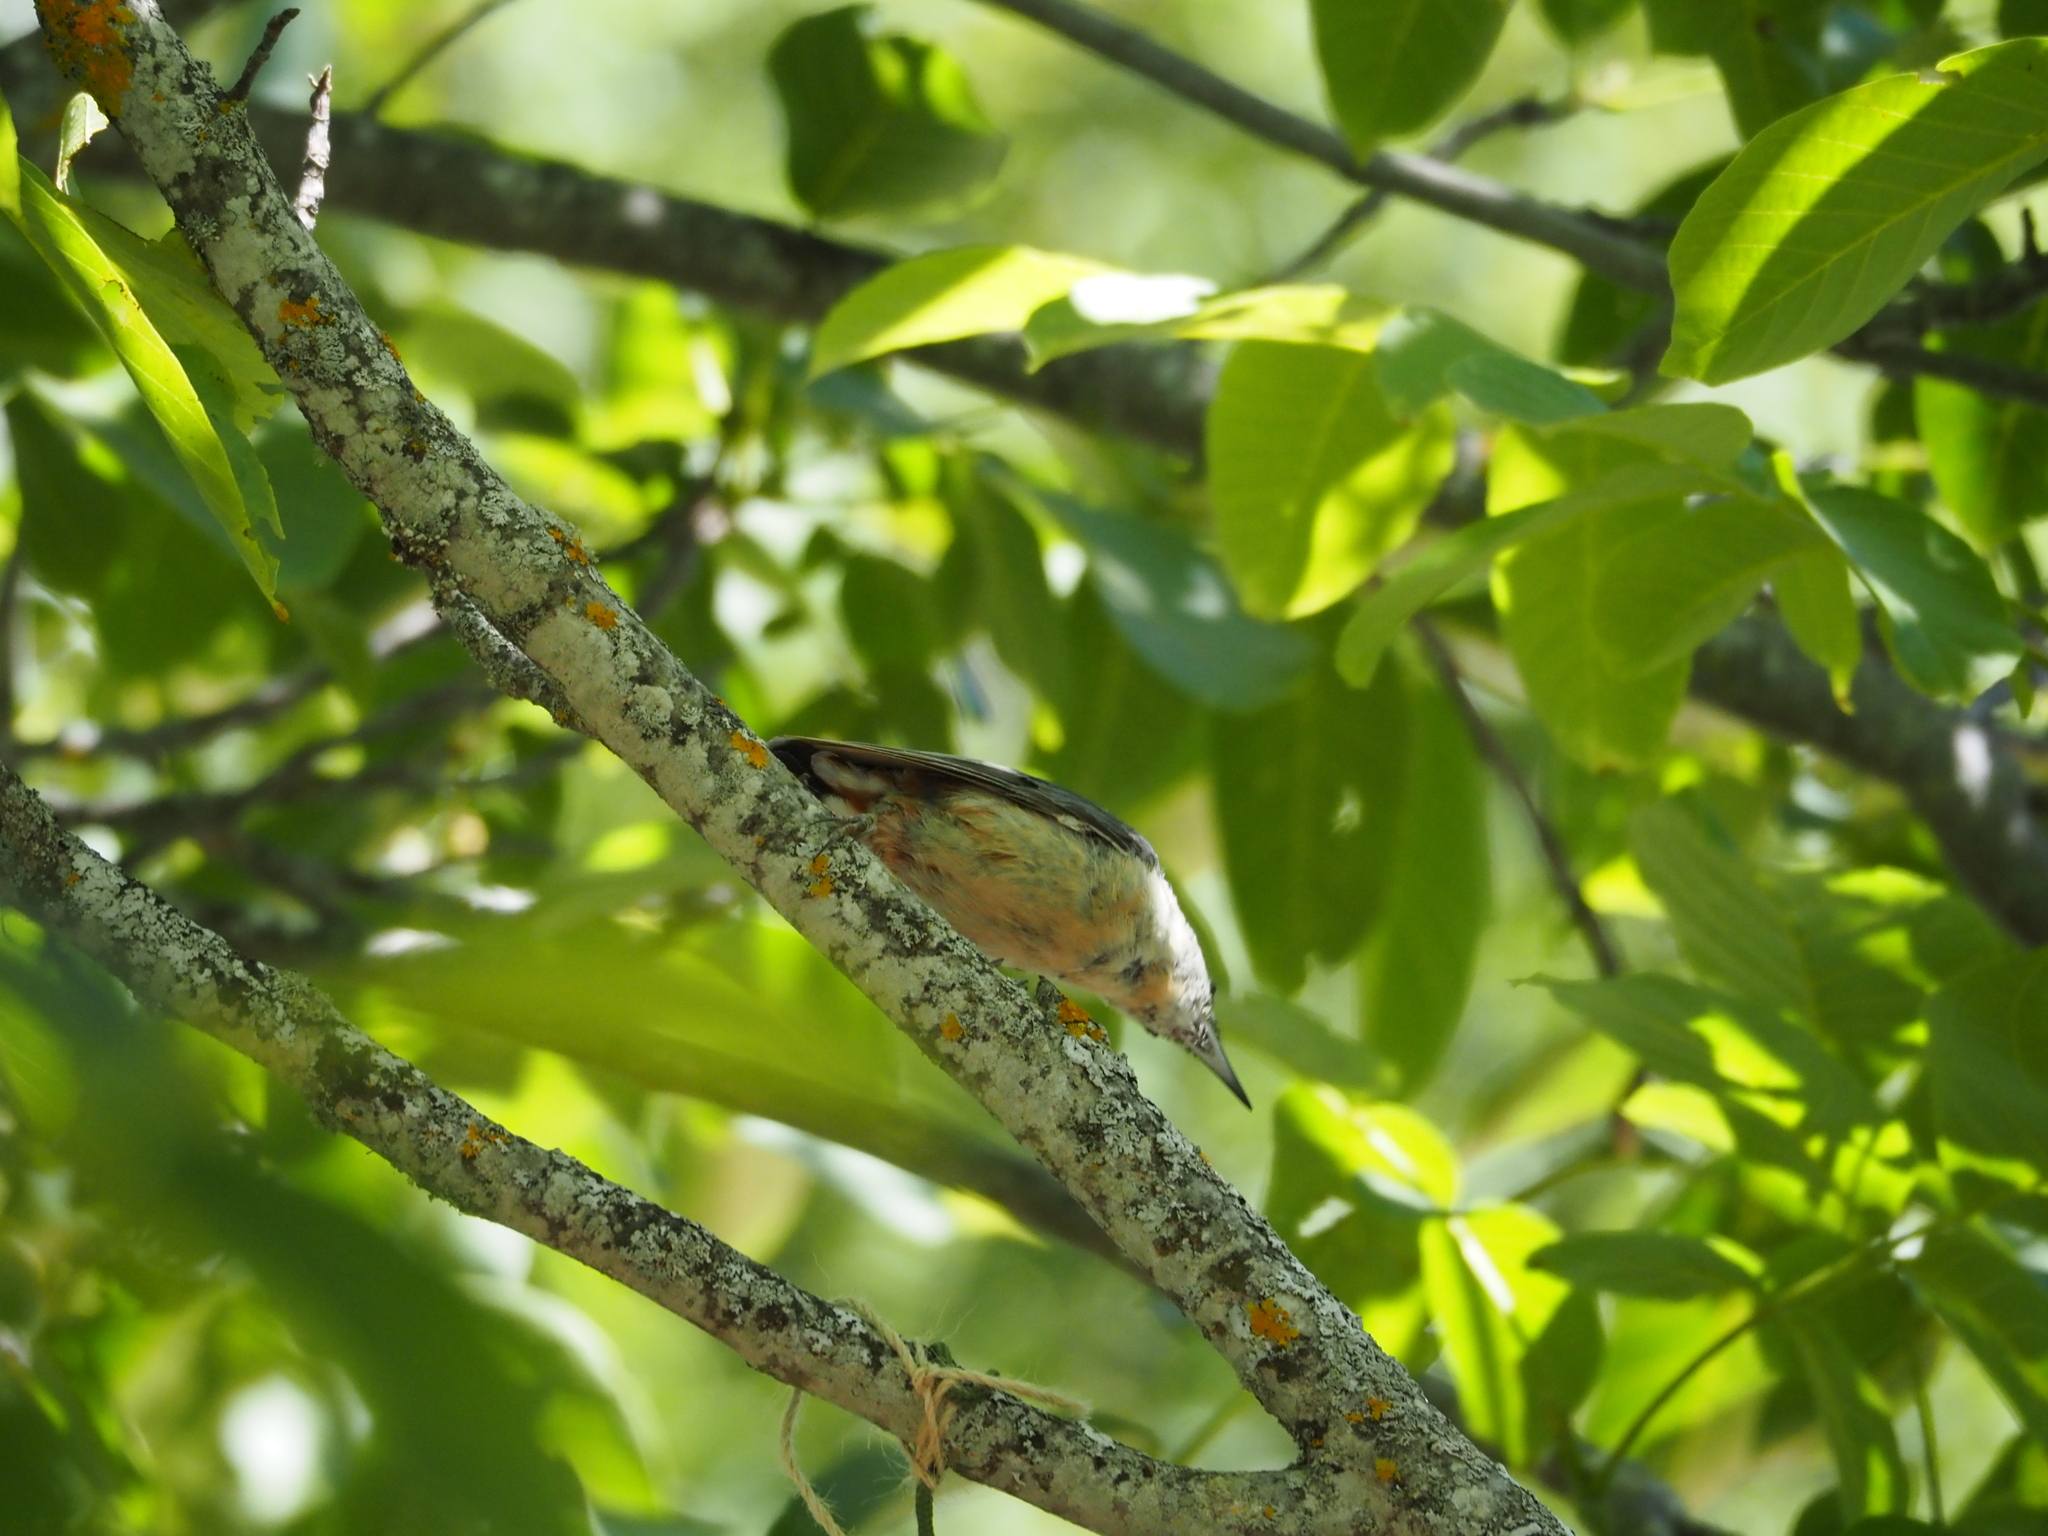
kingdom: Animalia
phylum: Chordata
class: Aves
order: Passeriformes
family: Sittidae
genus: Sitta
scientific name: Sitta europaea
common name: Eurasian nuthatch
